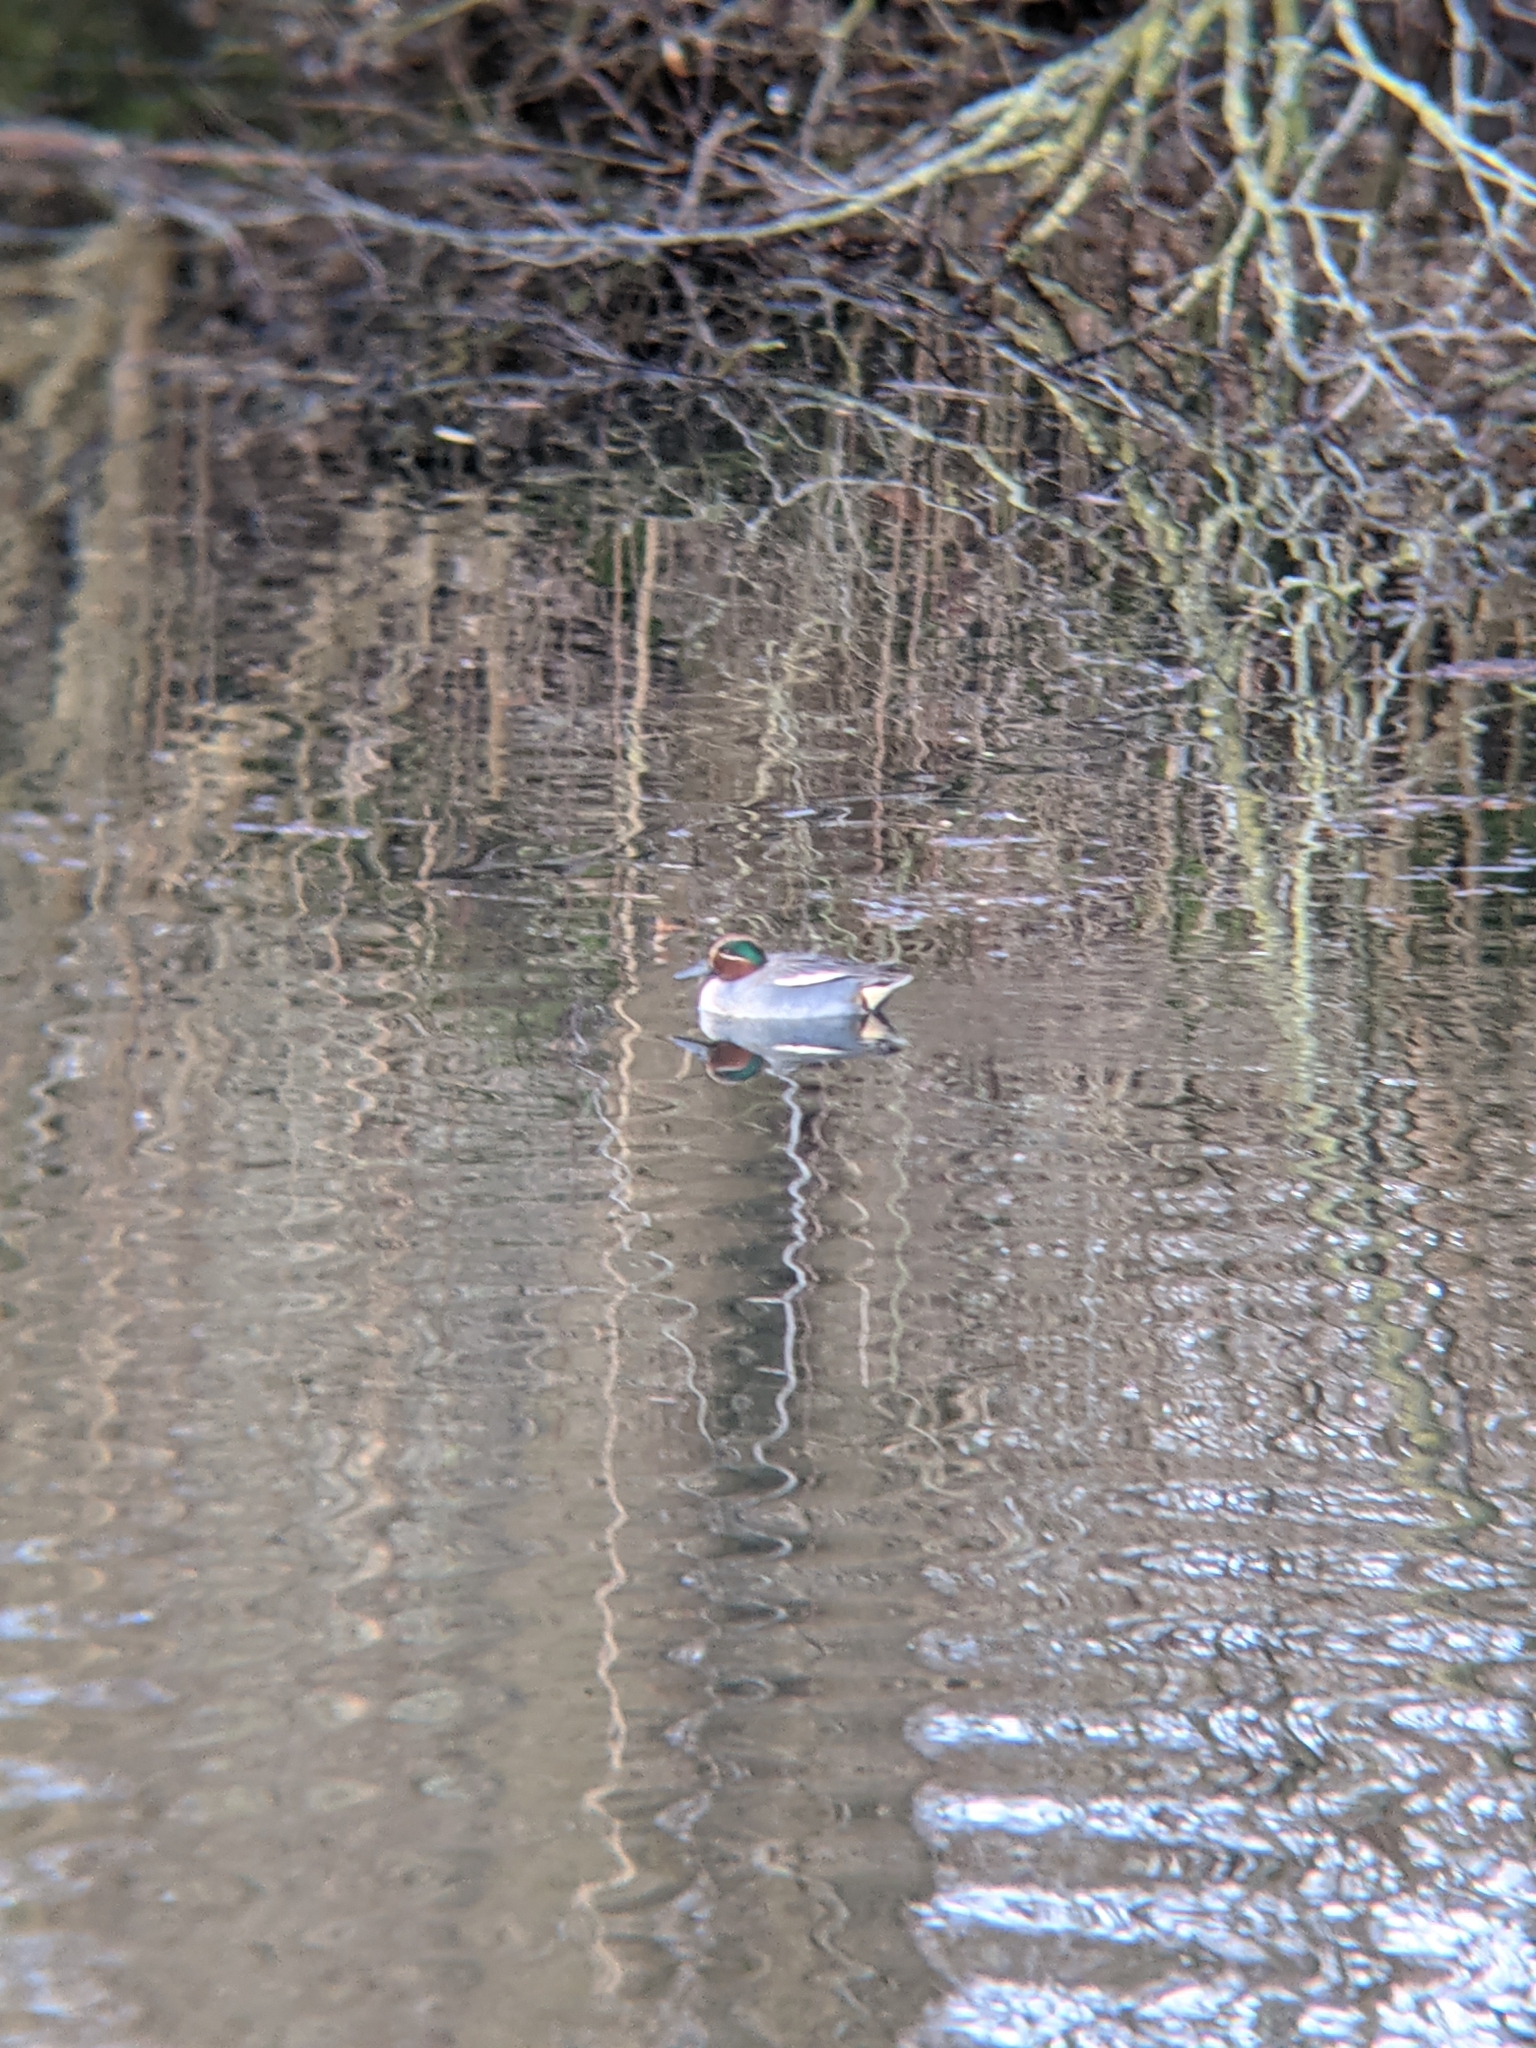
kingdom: Animalia
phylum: Chordata
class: Aves
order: Anseriformes
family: Anatidae
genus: Anas
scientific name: Anas crecca
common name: Eurasian teal
